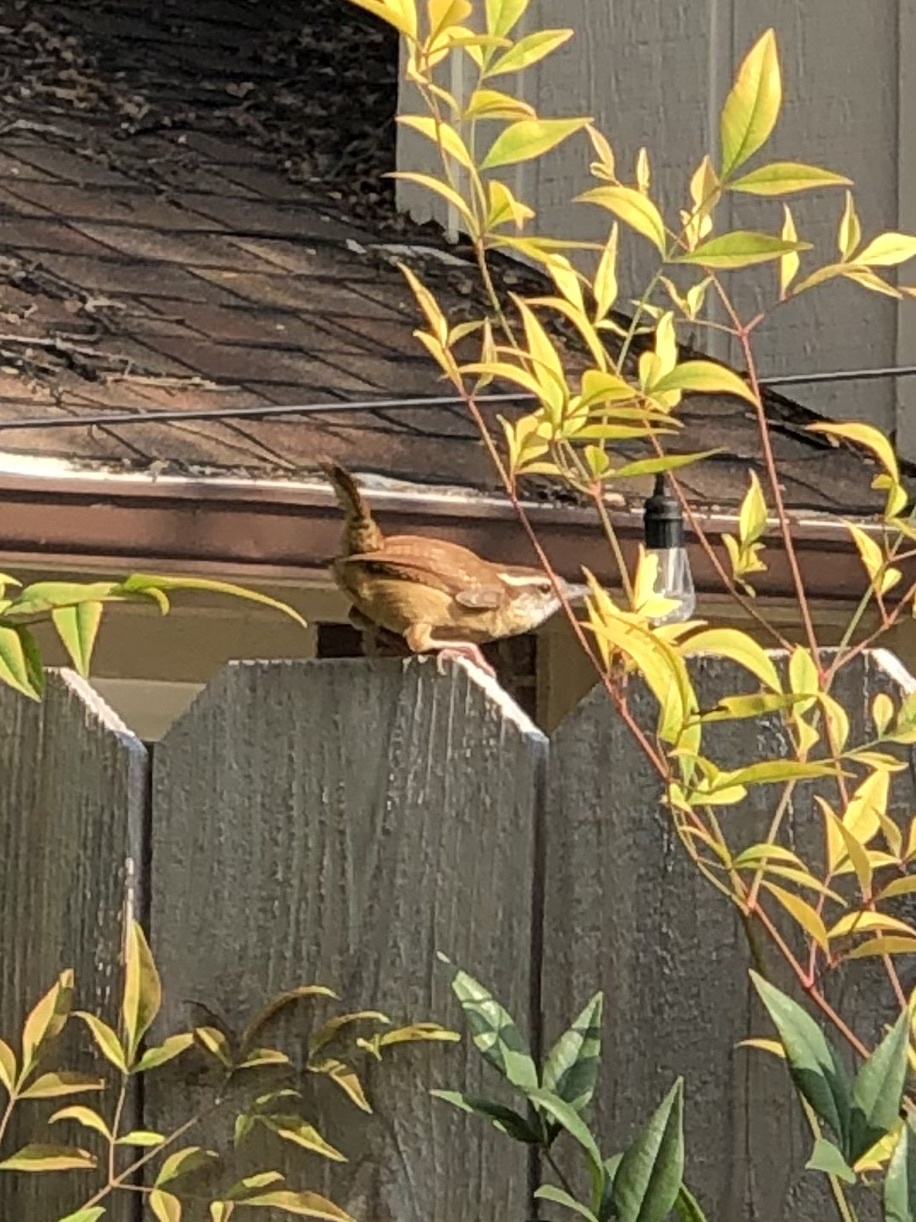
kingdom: Animalia
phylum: Chordata
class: Aves
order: Passeriformes
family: Troglodytidae
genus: Thryothorus
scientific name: Thryothorus ludovicianus
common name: Carolina wren
